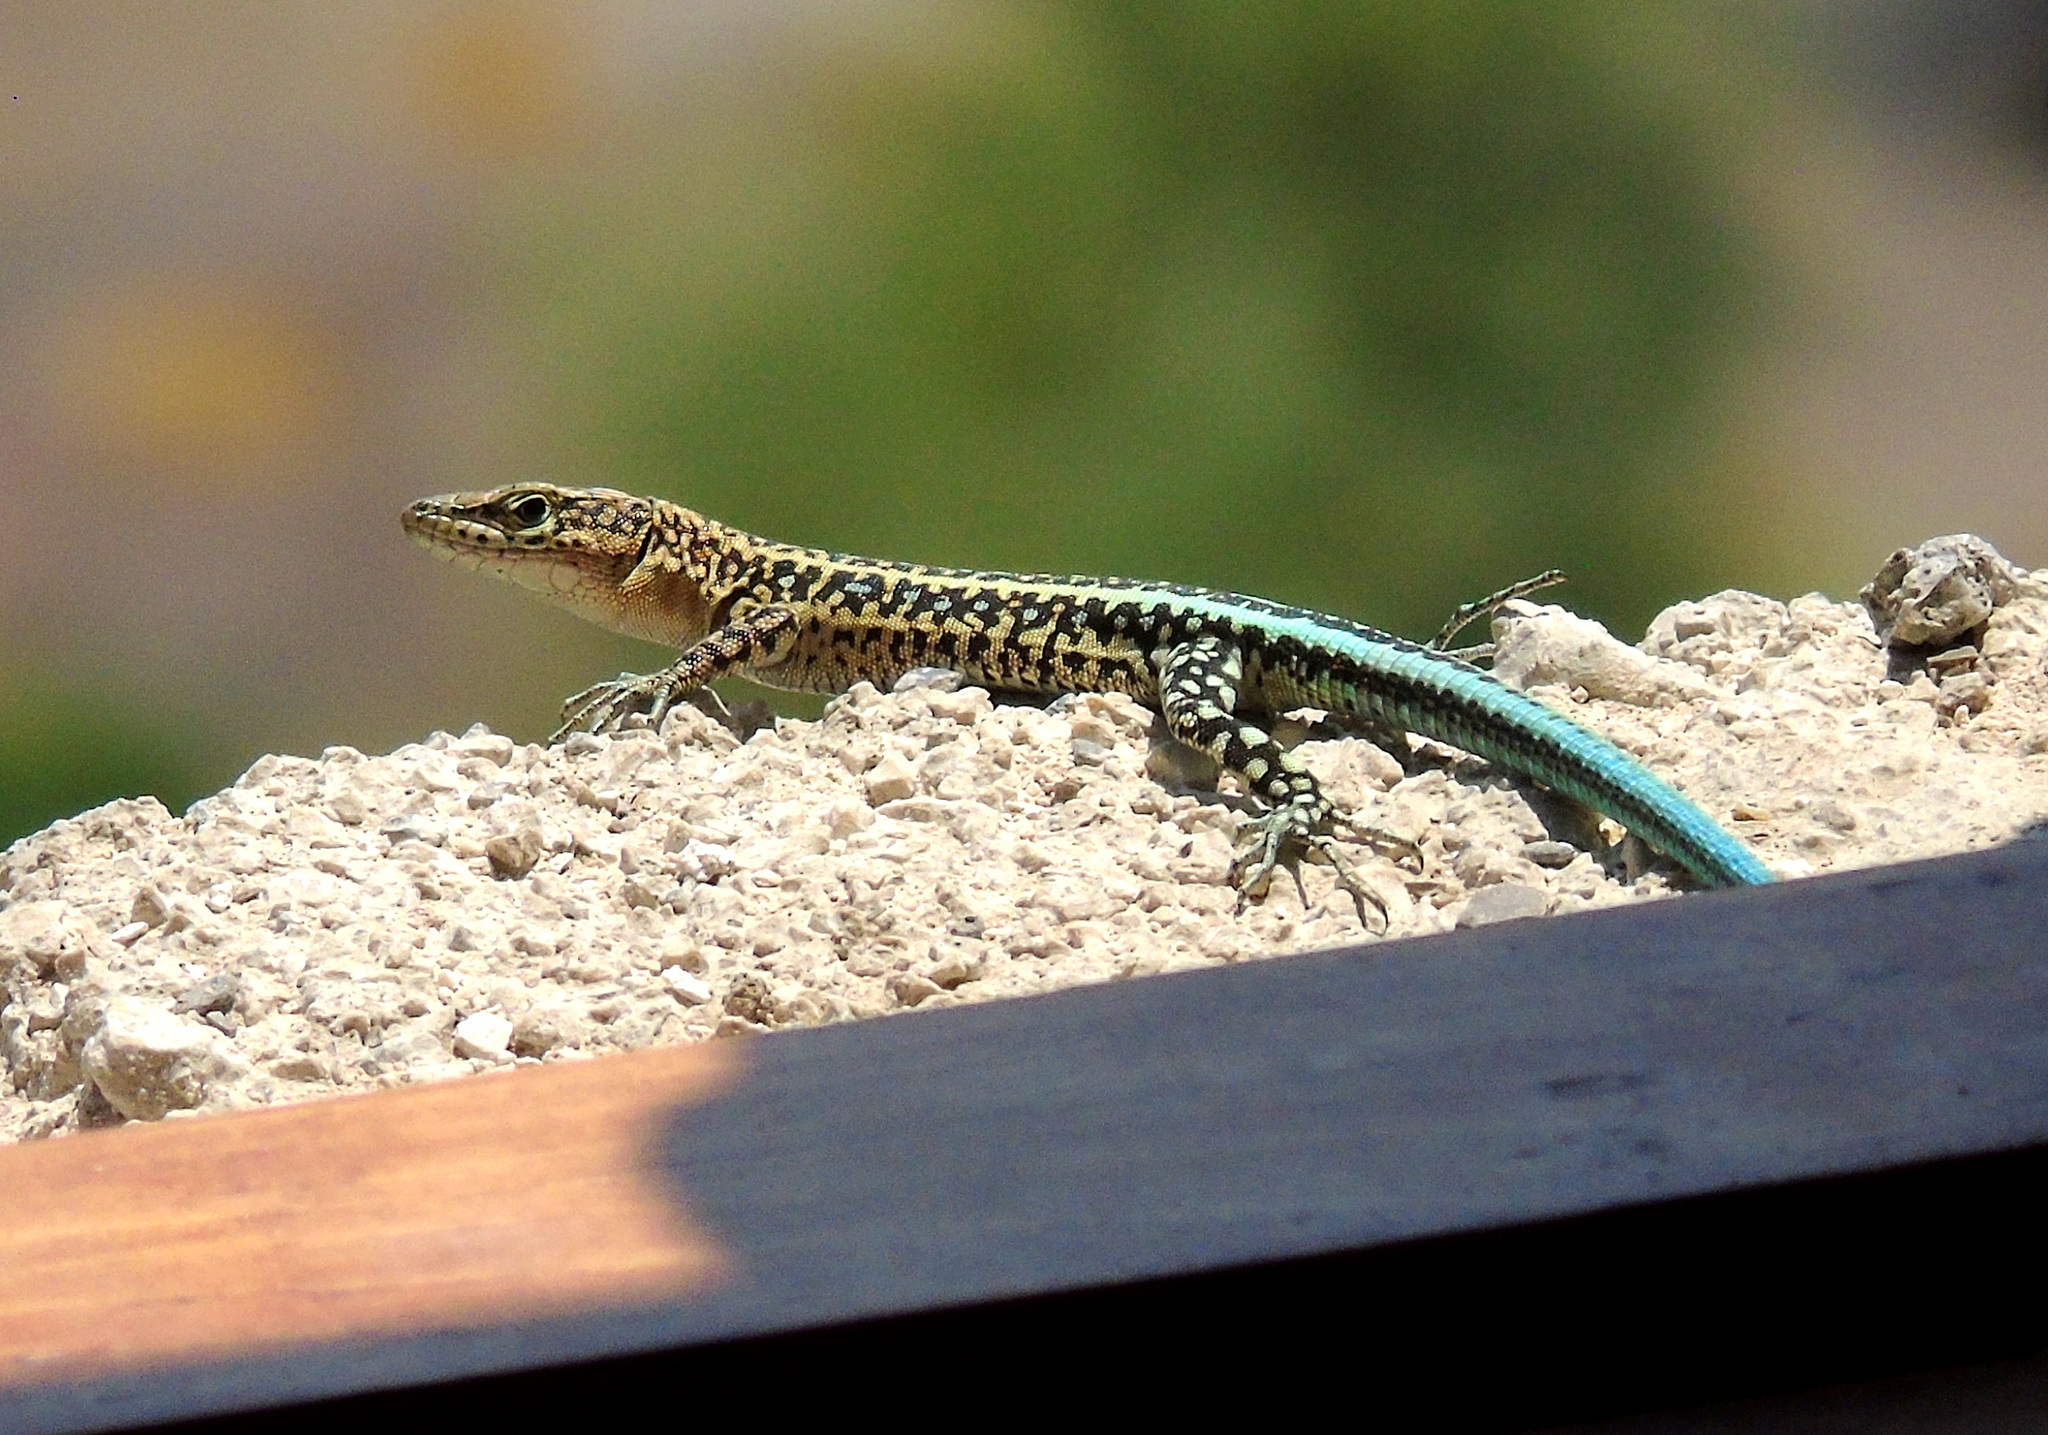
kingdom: Animalia
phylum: Chordata
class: Squamata
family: Lacertidae
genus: Apathya
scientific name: Apathya cappadocica
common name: Anatolian lizard
